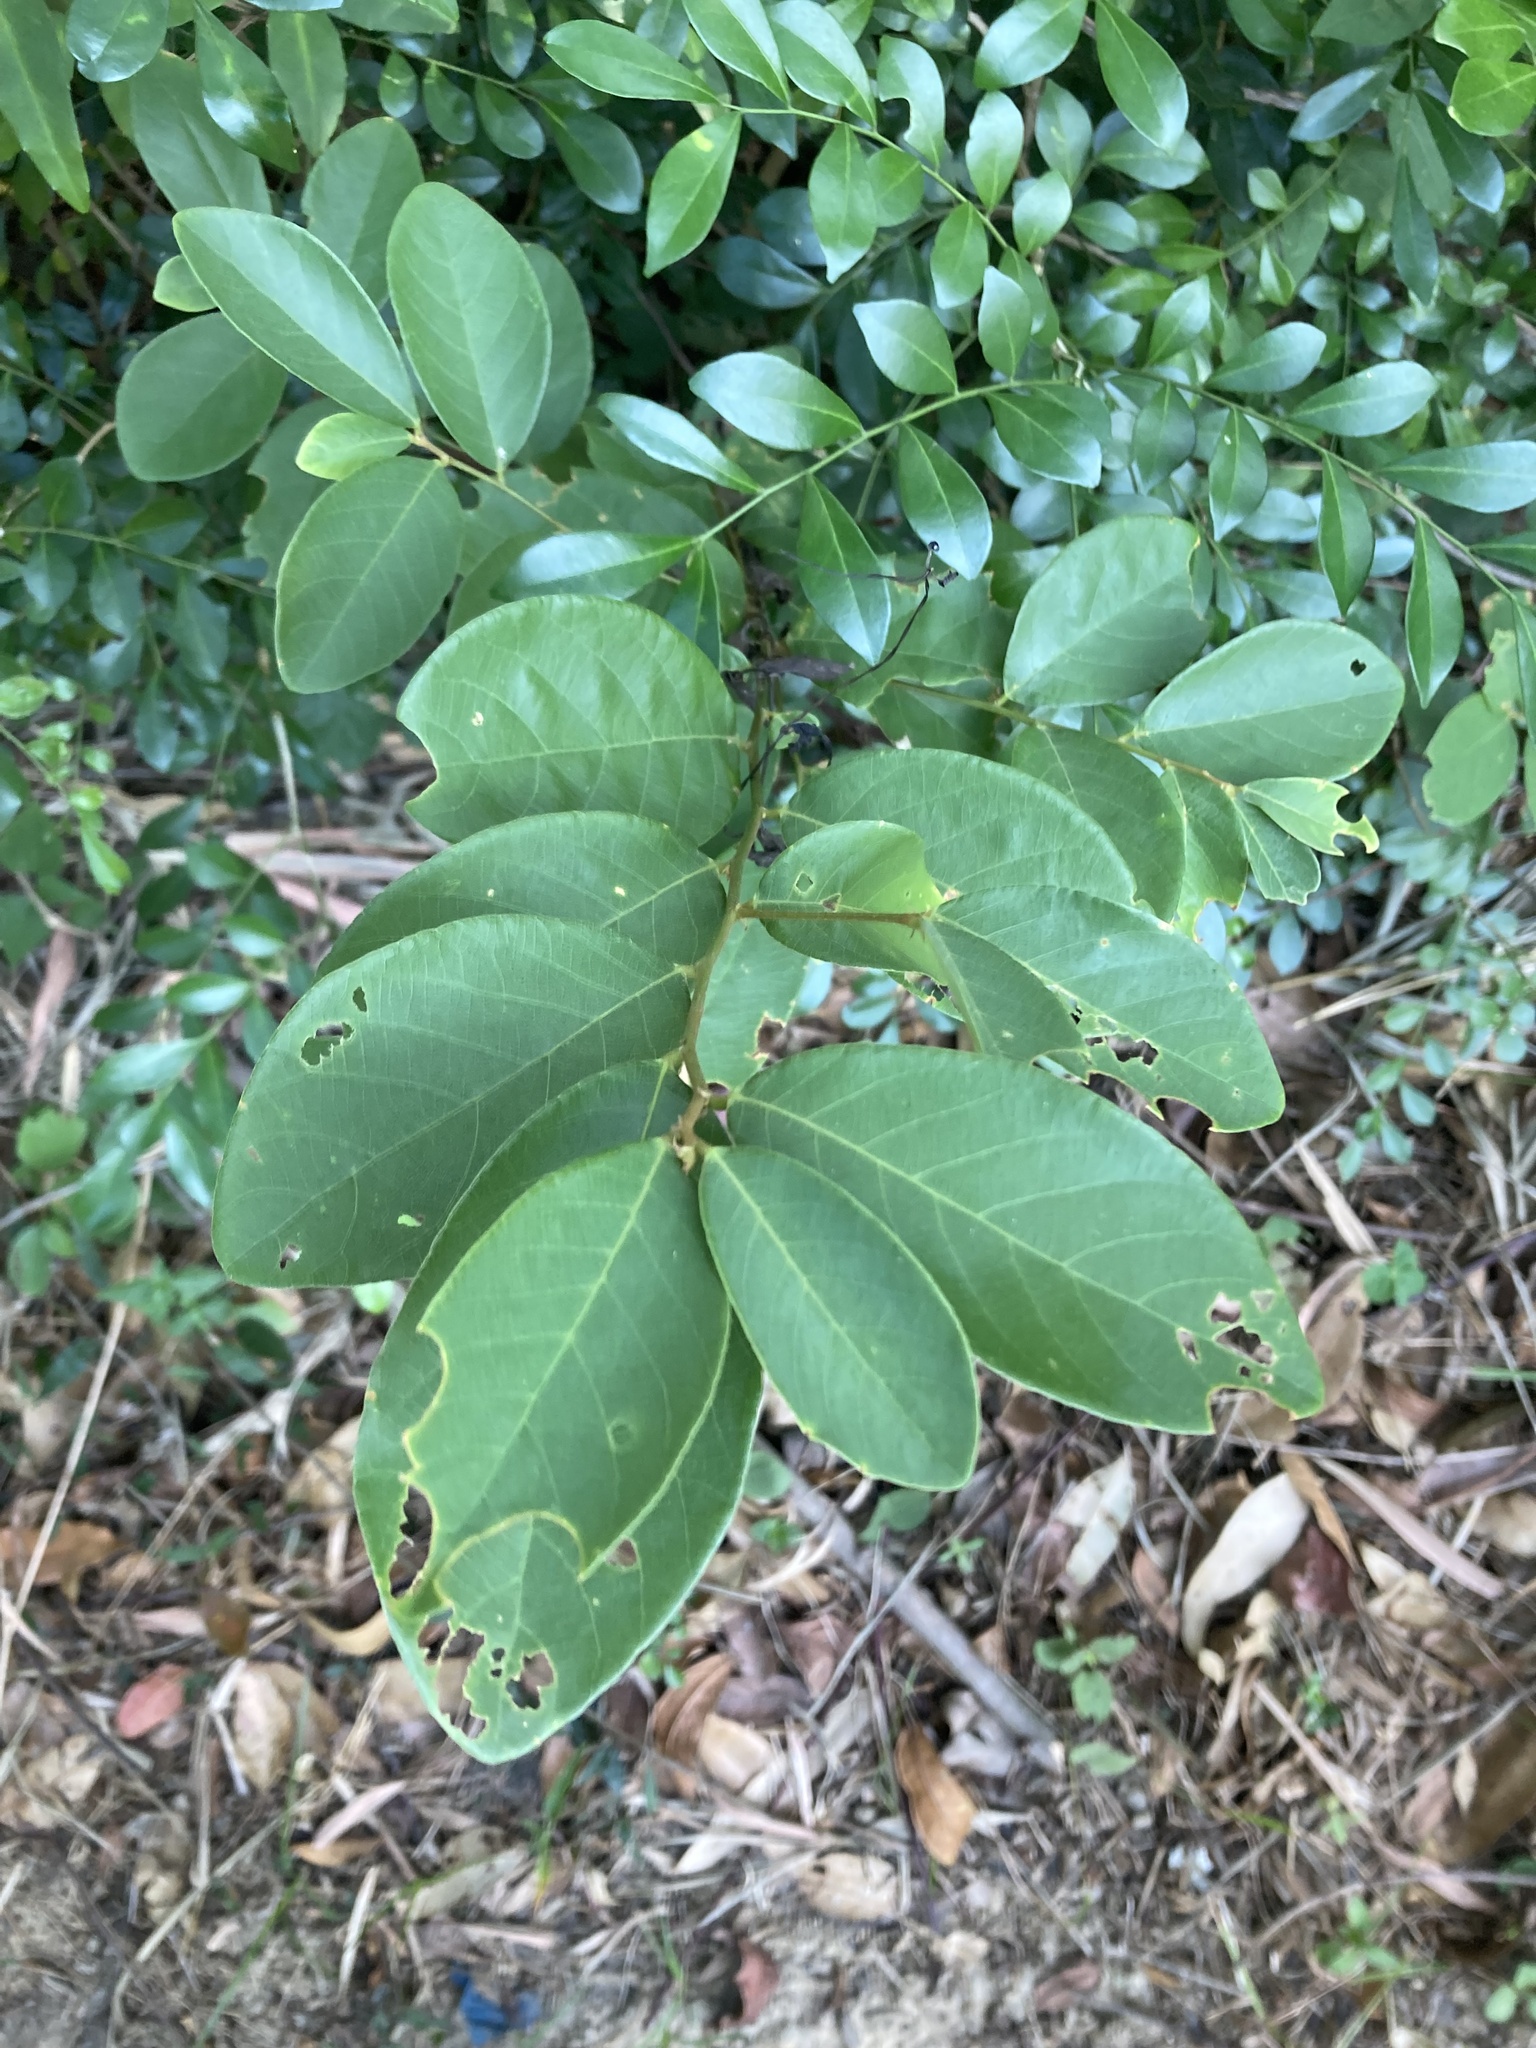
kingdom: Plantae
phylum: Tracheophyta
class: Magnoliopsida
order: Malpighiales
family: Phyllanthaceae
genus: Bridelia
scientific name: Bridelia tomentosa
